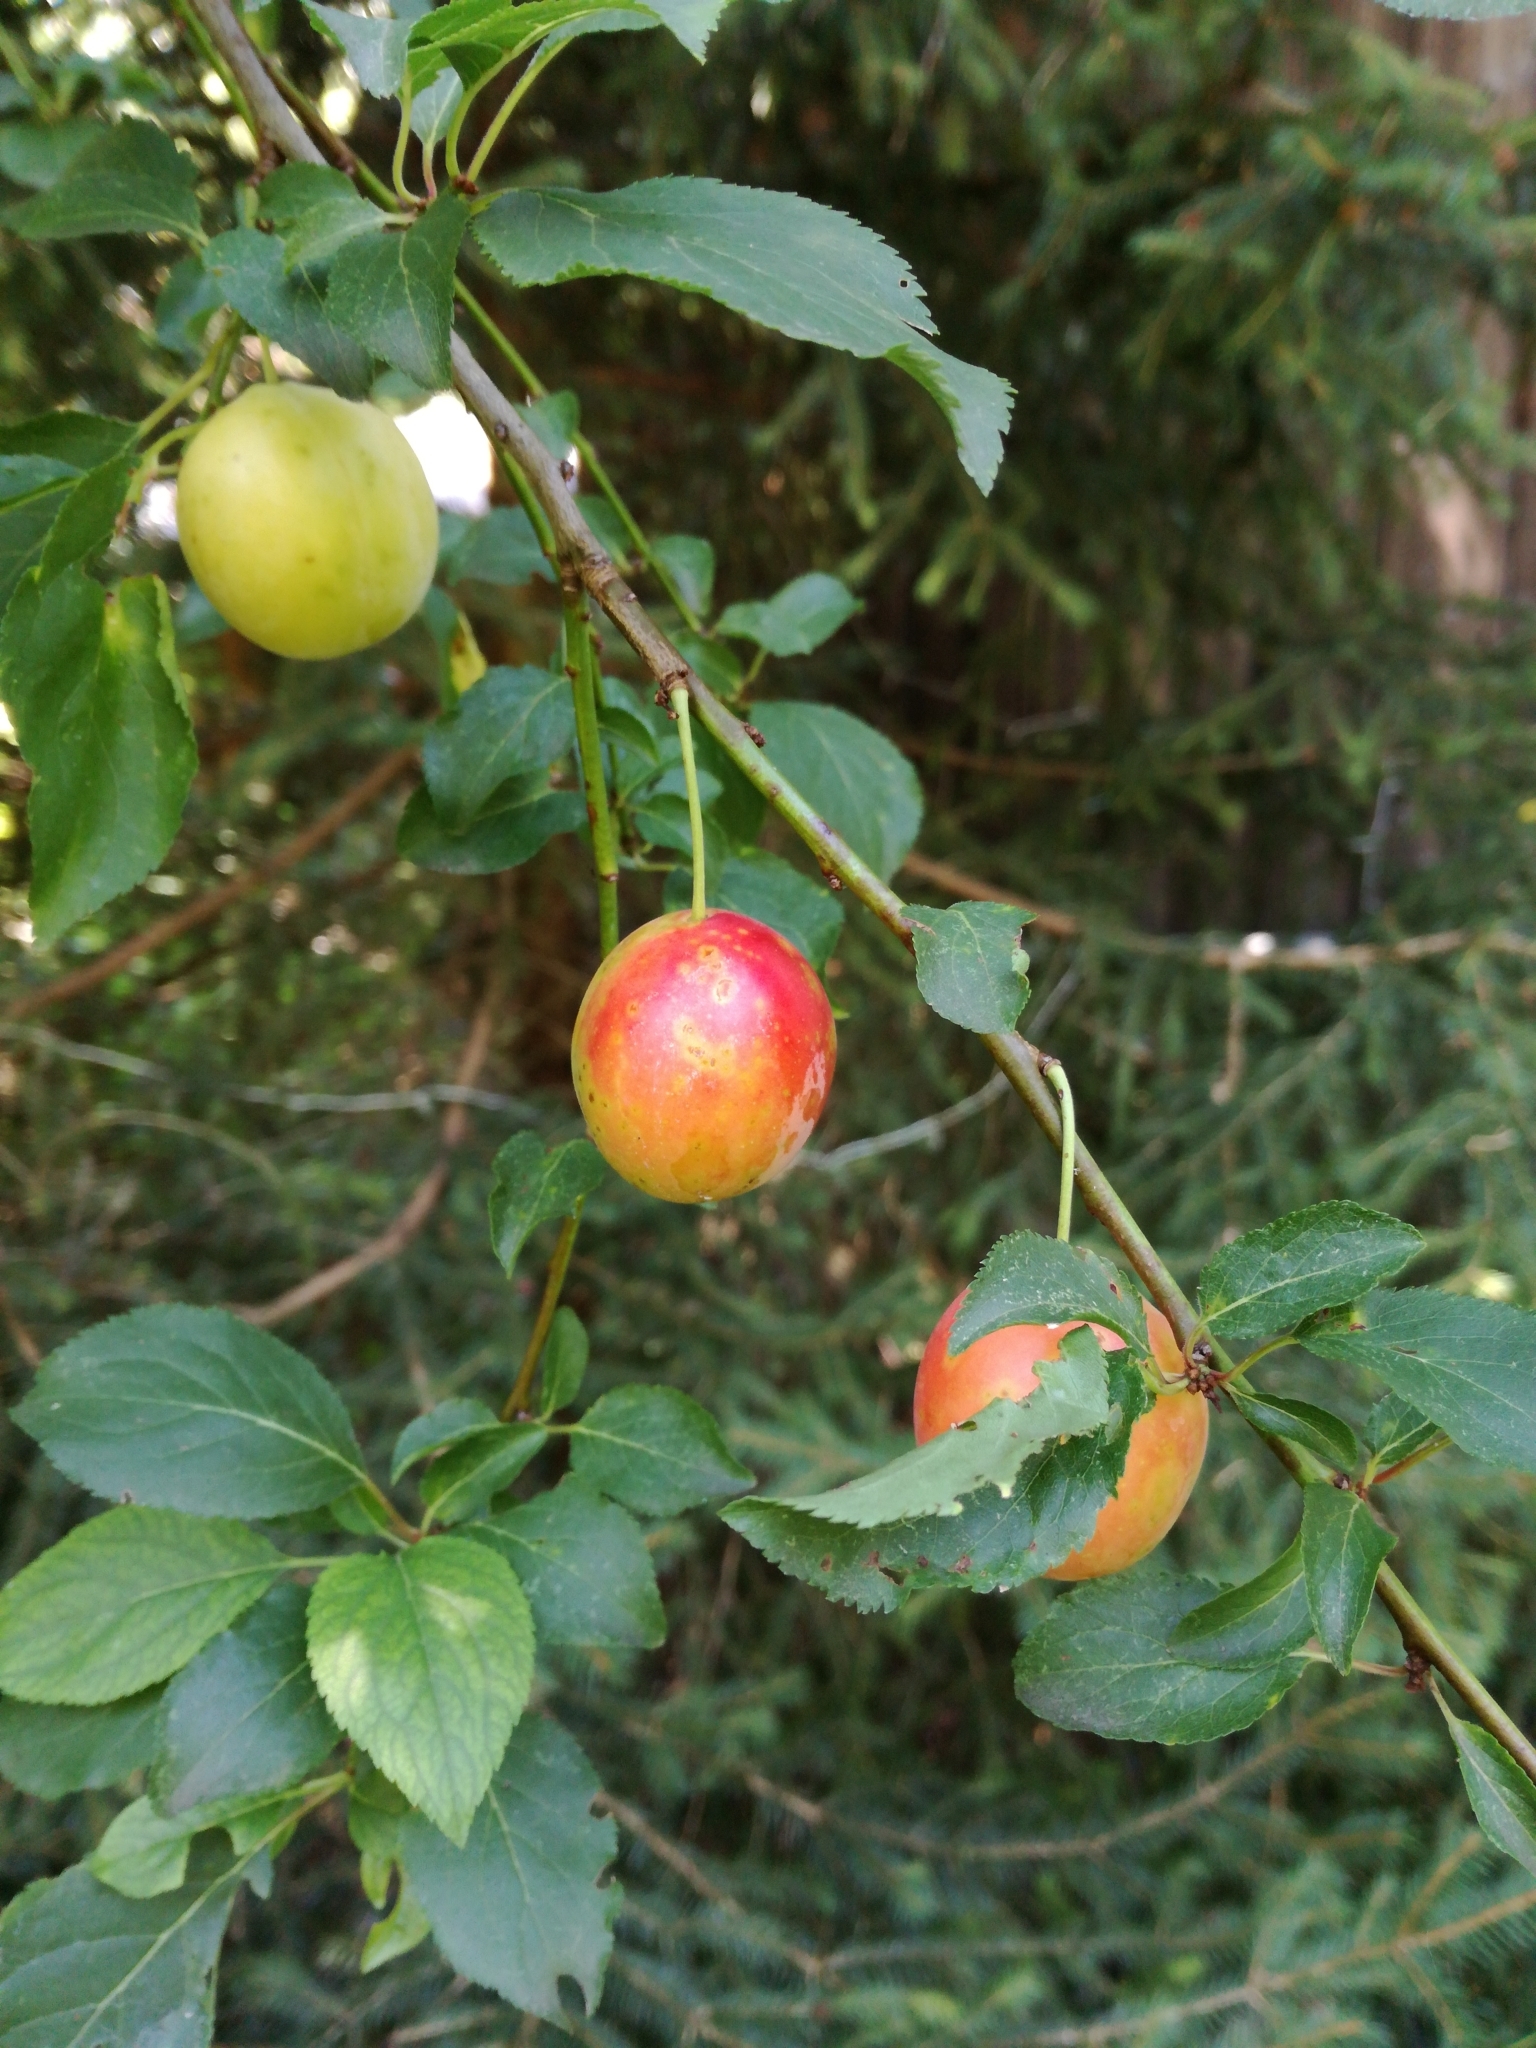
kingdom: Plantae
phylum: Tracheophyta
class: Magnoliopsida
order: Rosales
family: Rosaceae
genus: Prunus
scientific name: Prunus domestica
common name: Wild plum
